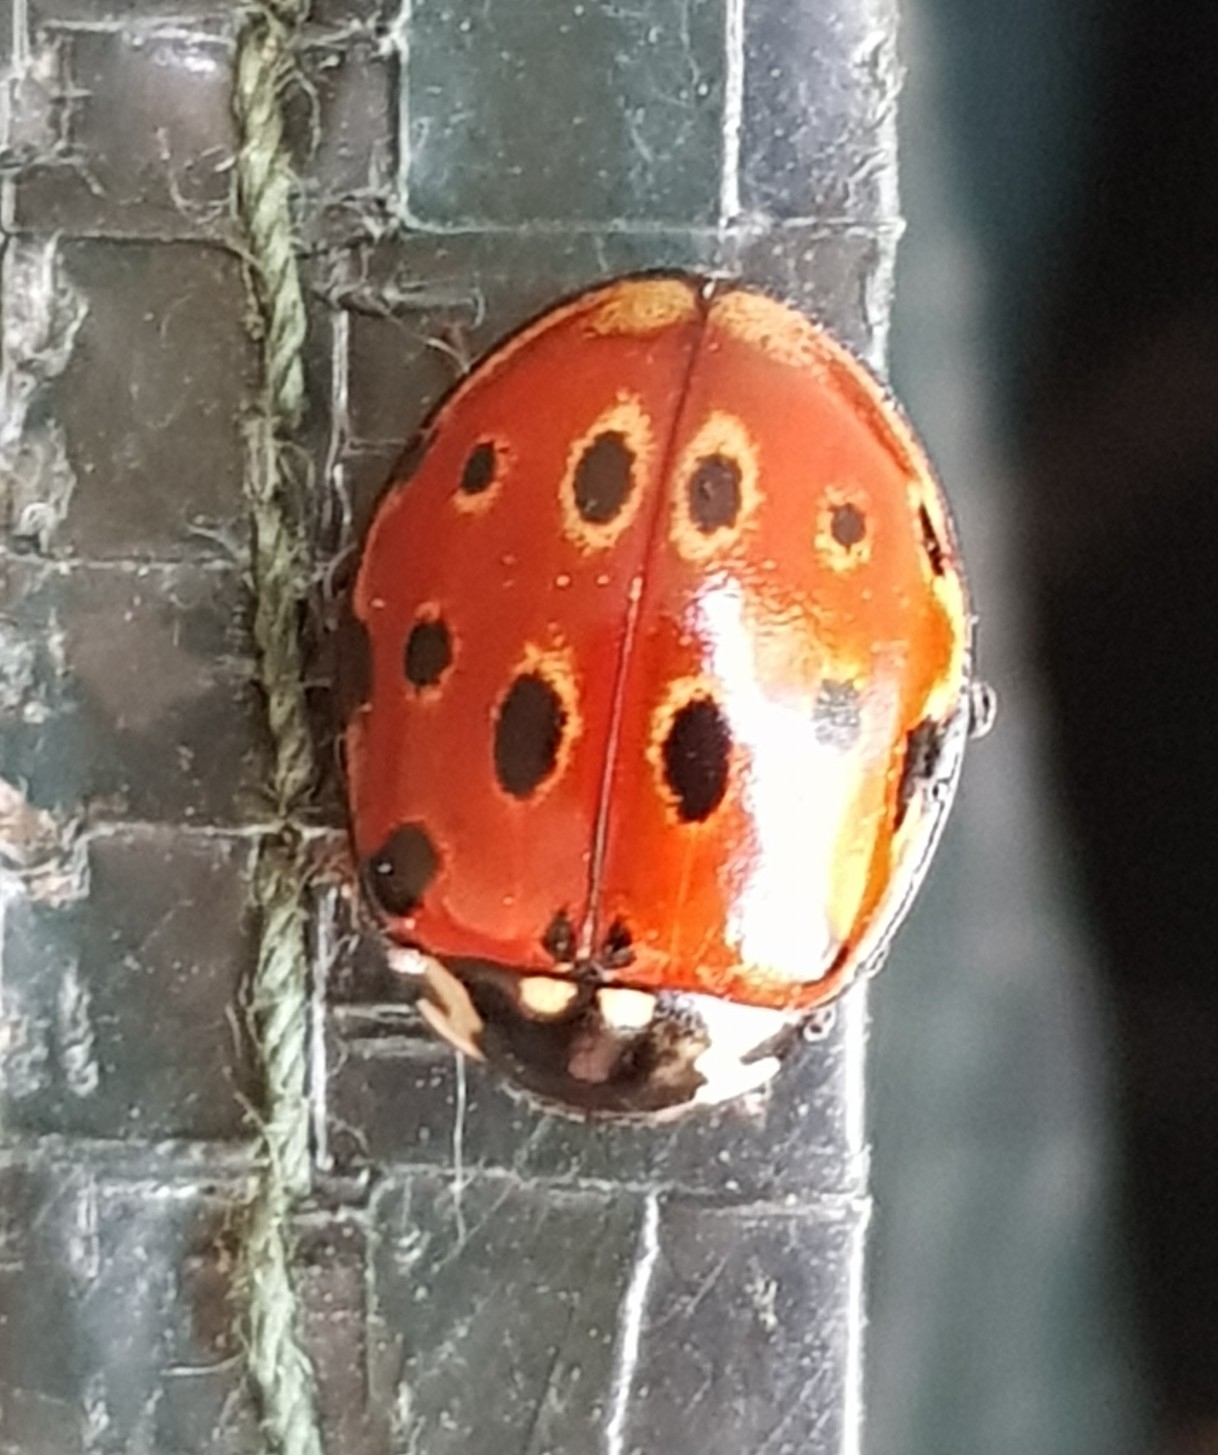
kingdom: Animalia
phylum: Arthropoda
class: Insecta
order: Coleoptera
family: Coccinellidae
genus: Anatis
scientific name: Anatis ocellata
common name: Eyed ladybird
